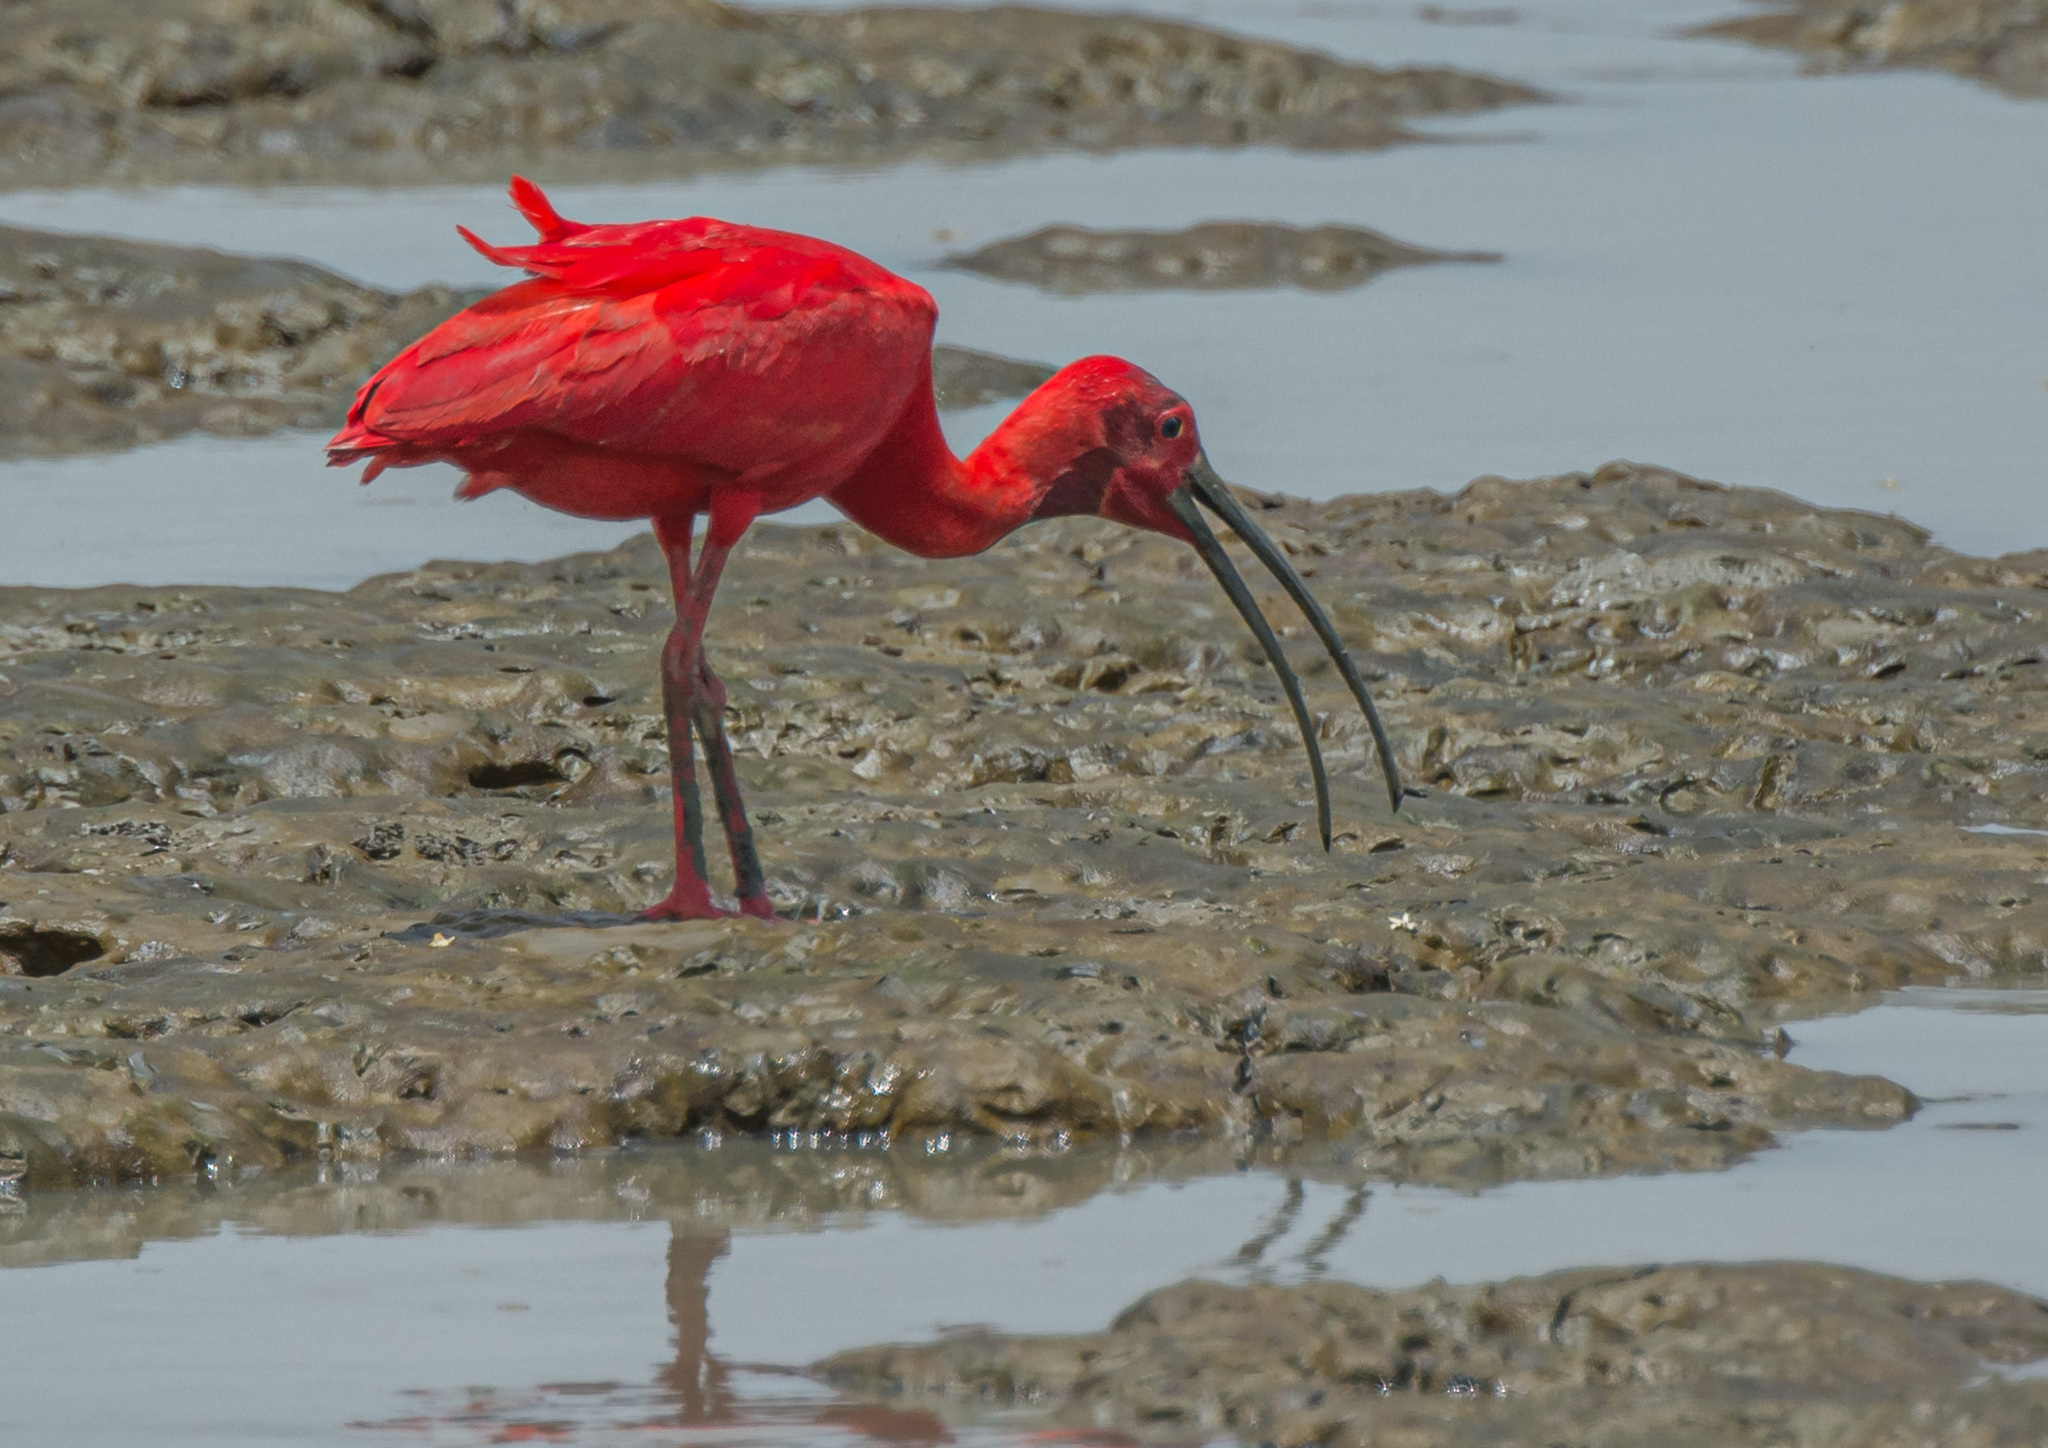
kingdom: Animalia
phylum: Chordata
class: Aves
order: Pelecaniformes
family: Threskiornithidae
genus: Eudocimus
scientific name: Eudocimus ruber
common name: Scarlet ibis
